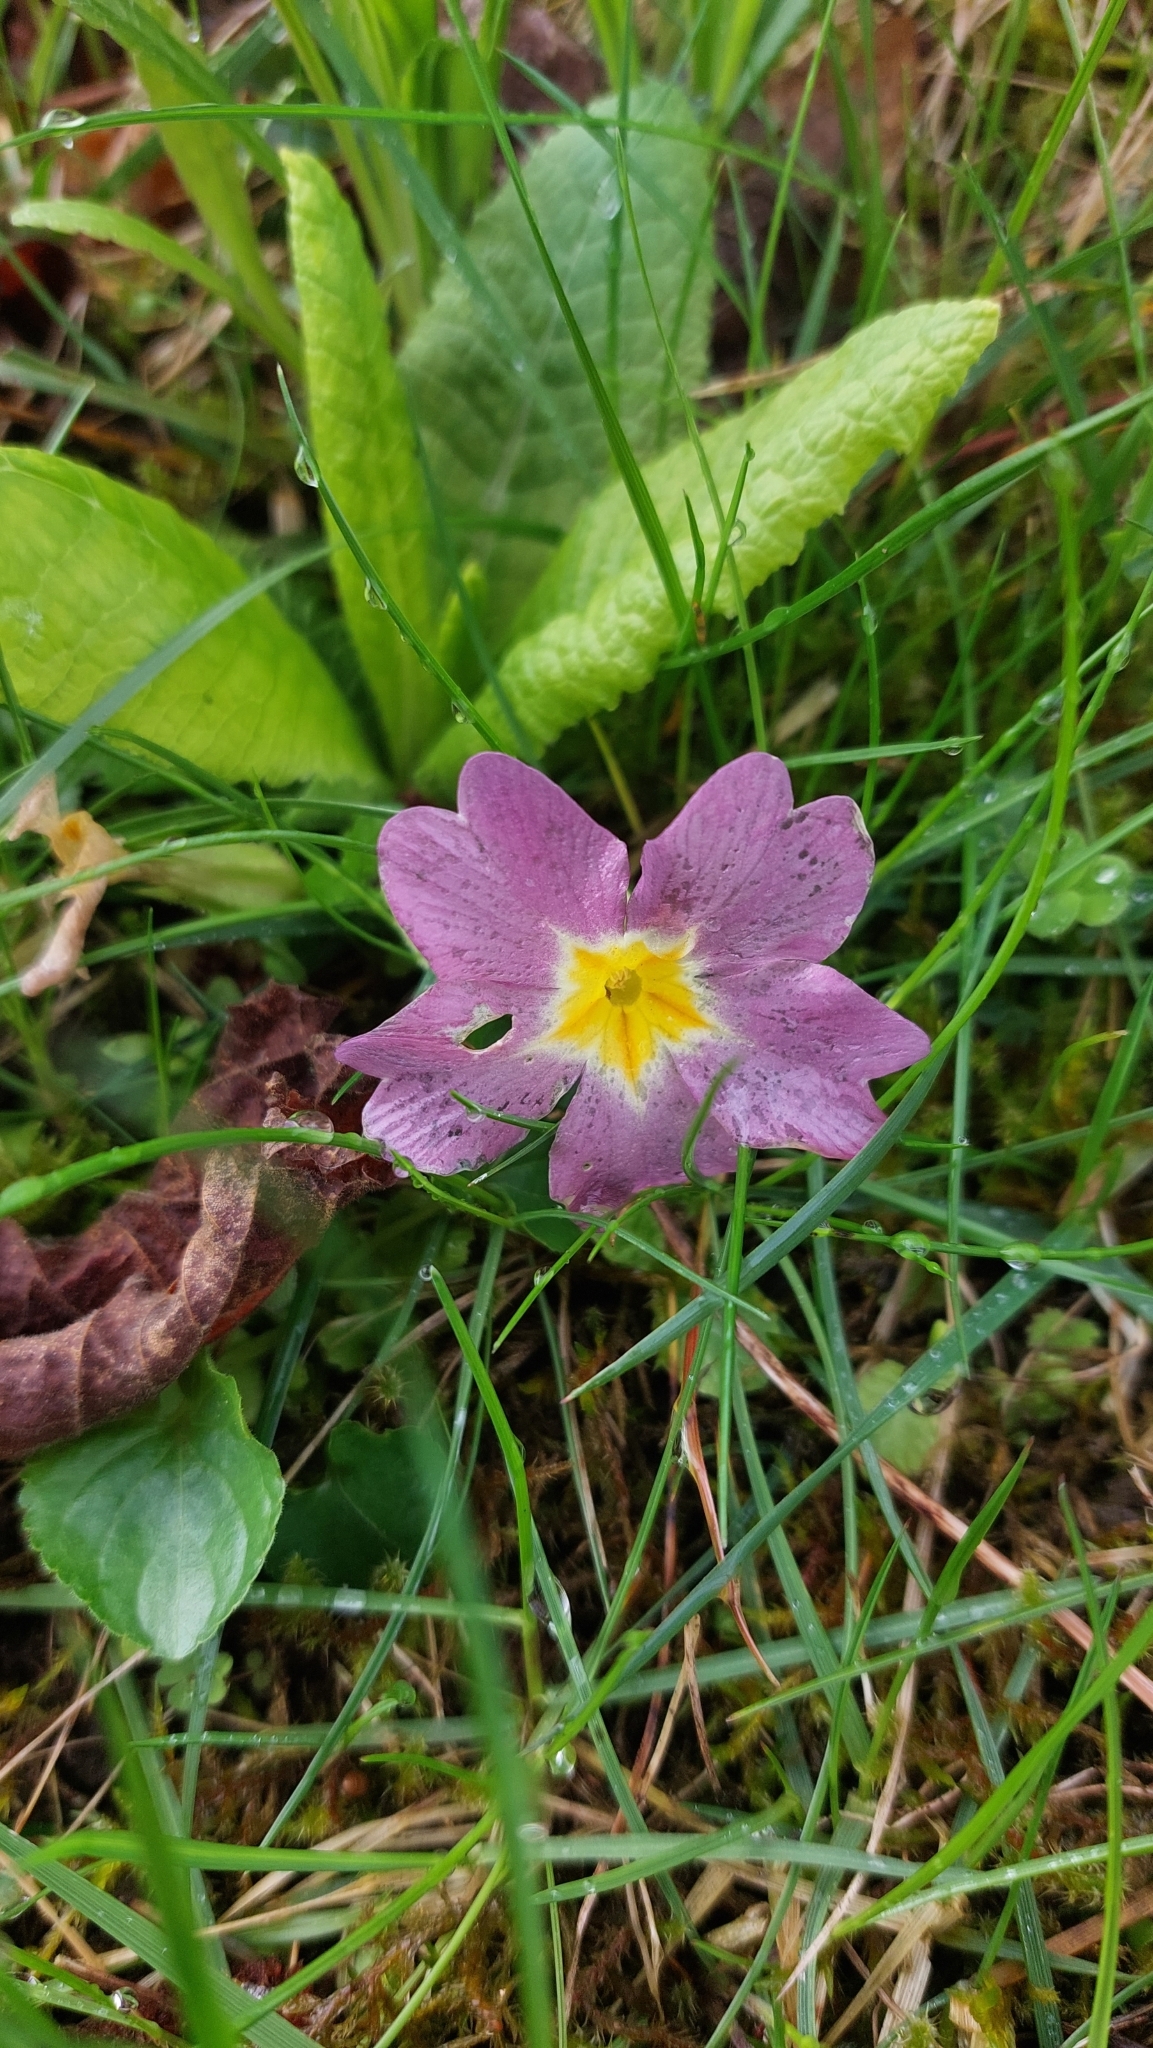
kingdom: Plantae
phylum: Tracheophyta
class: Magnoliopsida
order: Ericales
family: Primulaceae
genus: Primula
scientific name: Primula vulgaris
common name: Primrose
